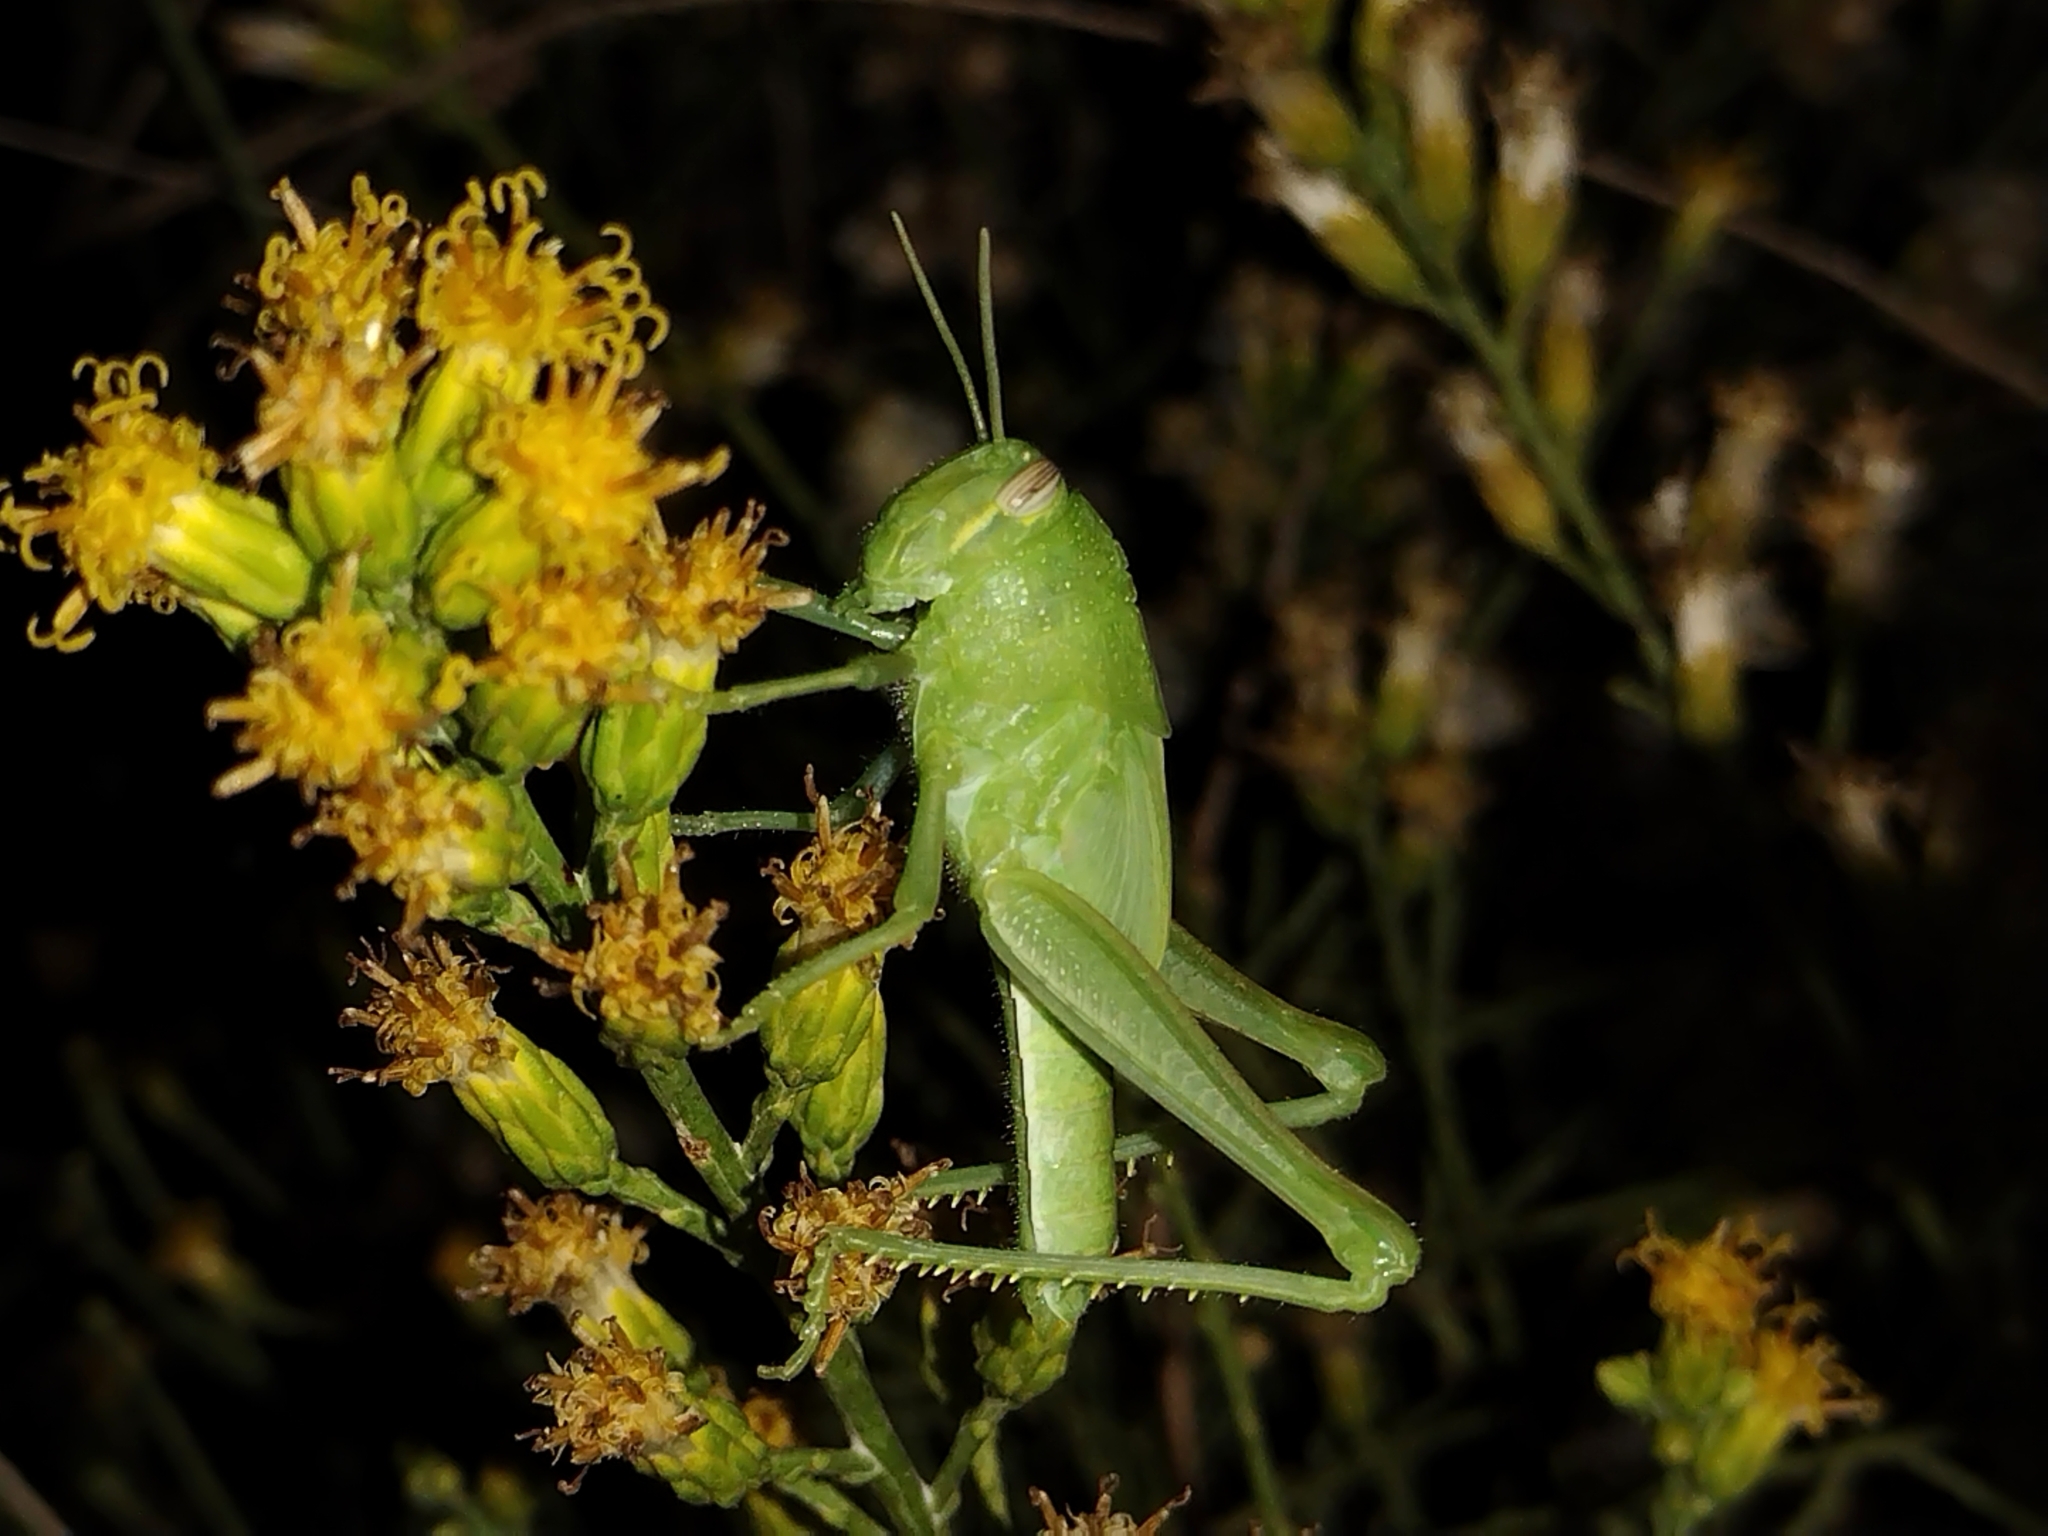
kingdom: Animalia
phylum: Arthropoda
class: Insecta
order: Orthoptera
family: Acrididae
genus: Schistocerca
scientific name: Schistocerca nitens
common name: Vagrant grasshopper
